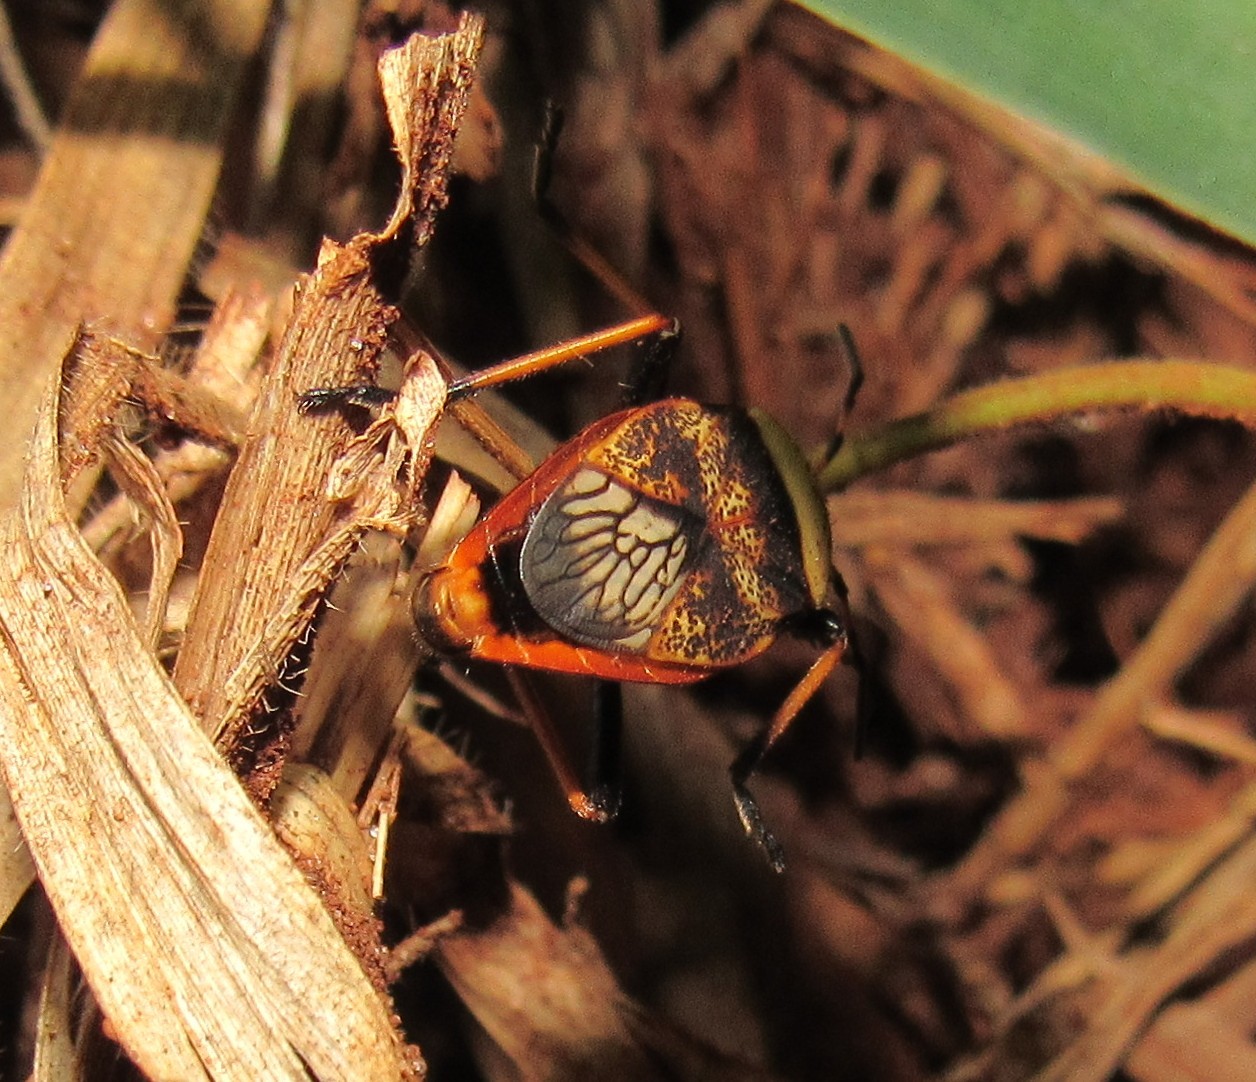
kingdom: Animalia
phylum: Arthropoda
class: Insecta
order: Hemiptera
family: Largidae
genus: Largus
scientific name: Largus humilis
